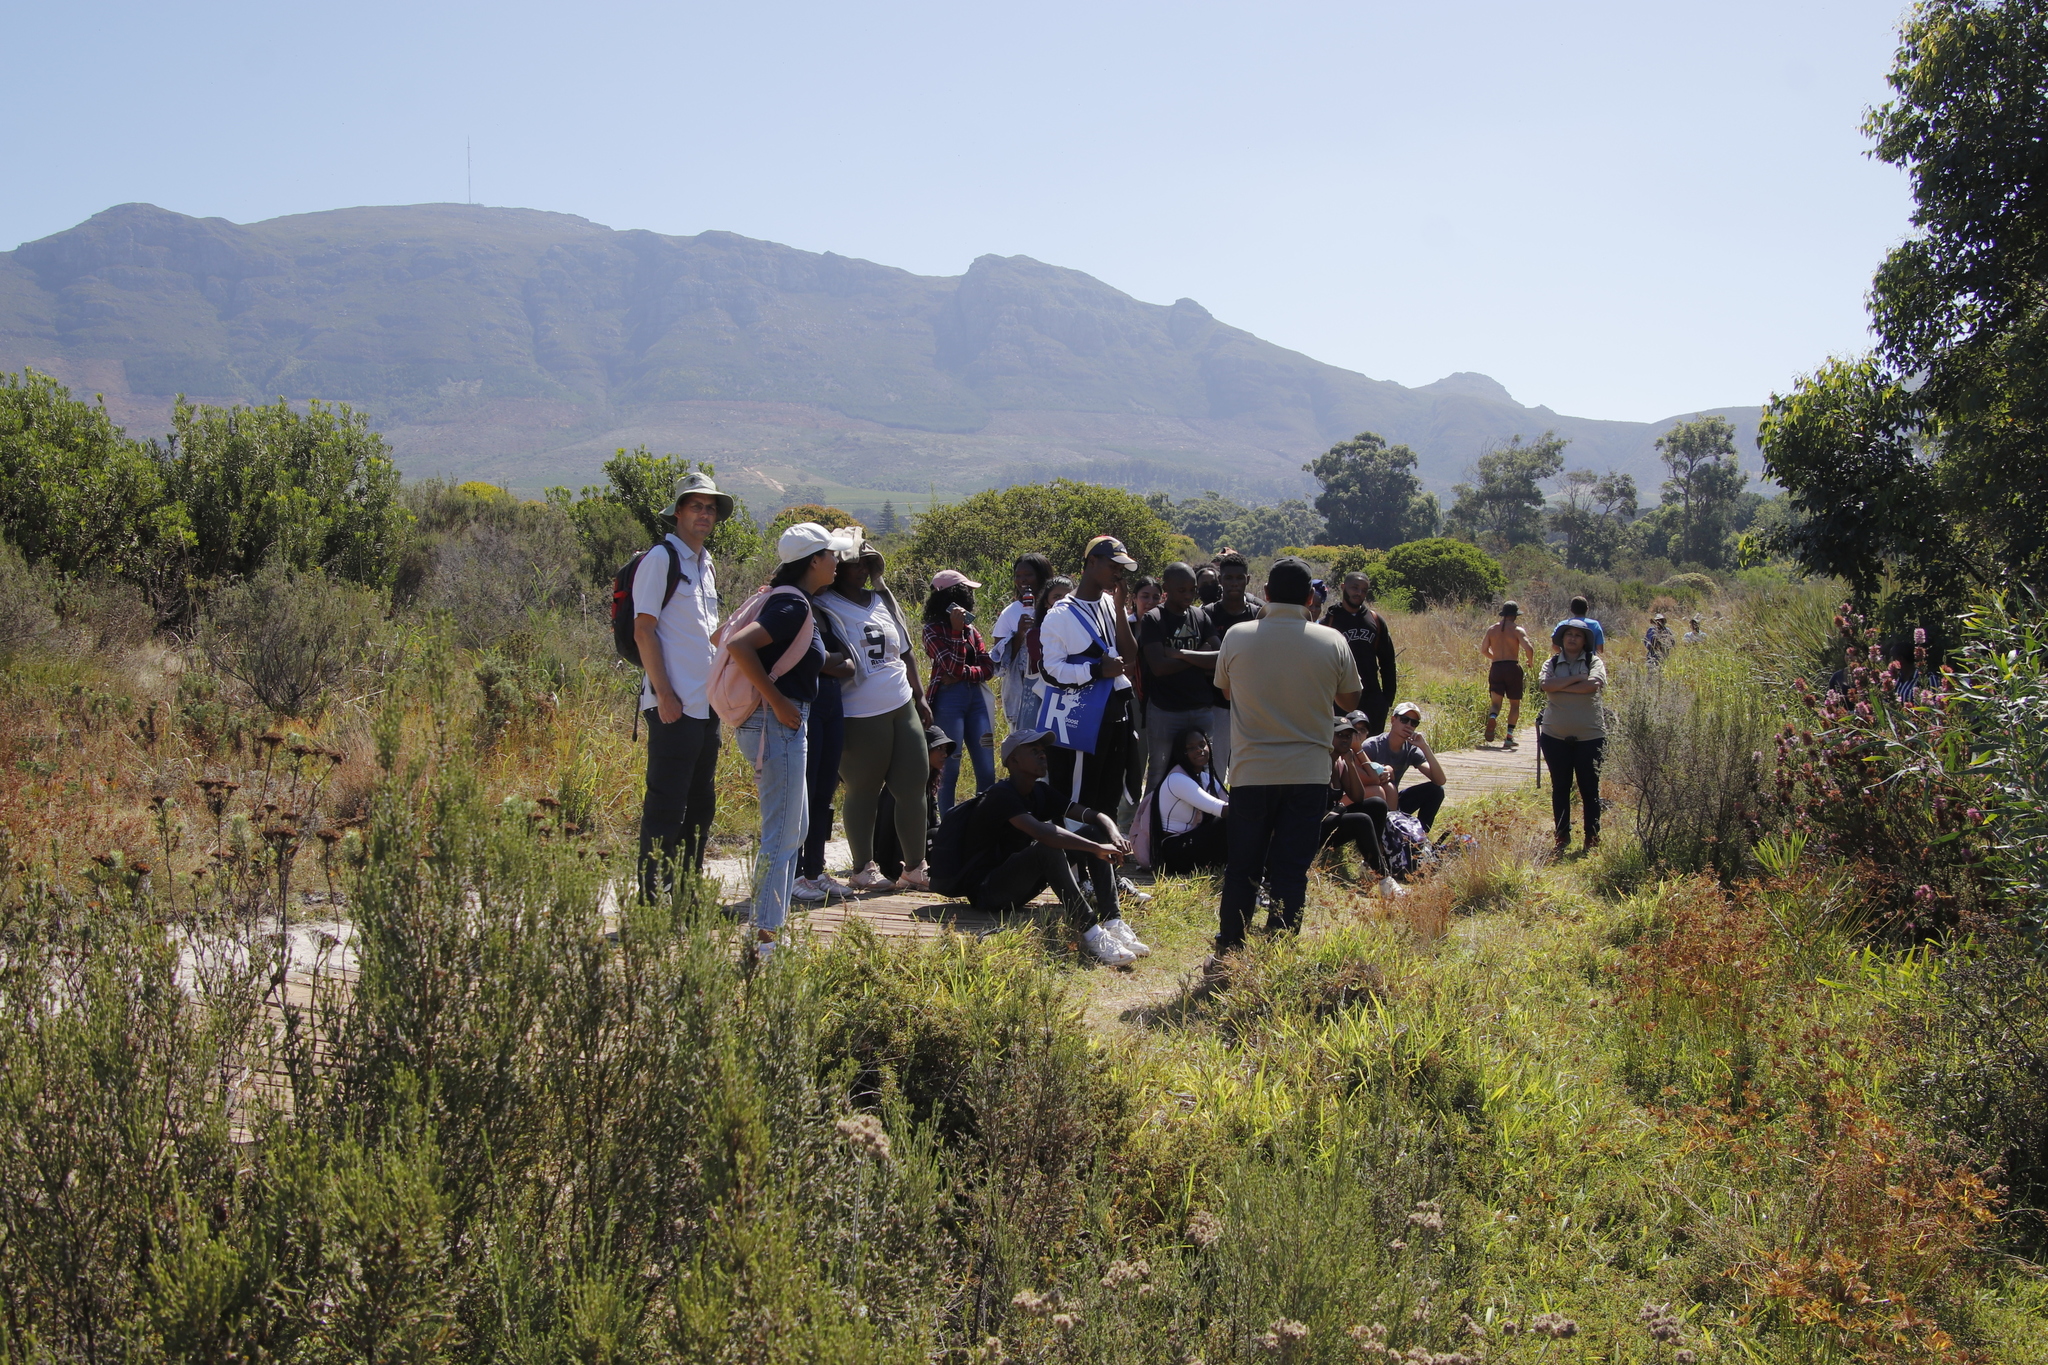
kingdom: Plantae
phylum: Tracheophyta
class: Magnoliopsida
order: Ericales
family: Ericaceae
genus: Erica
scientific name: Erica verticillata
